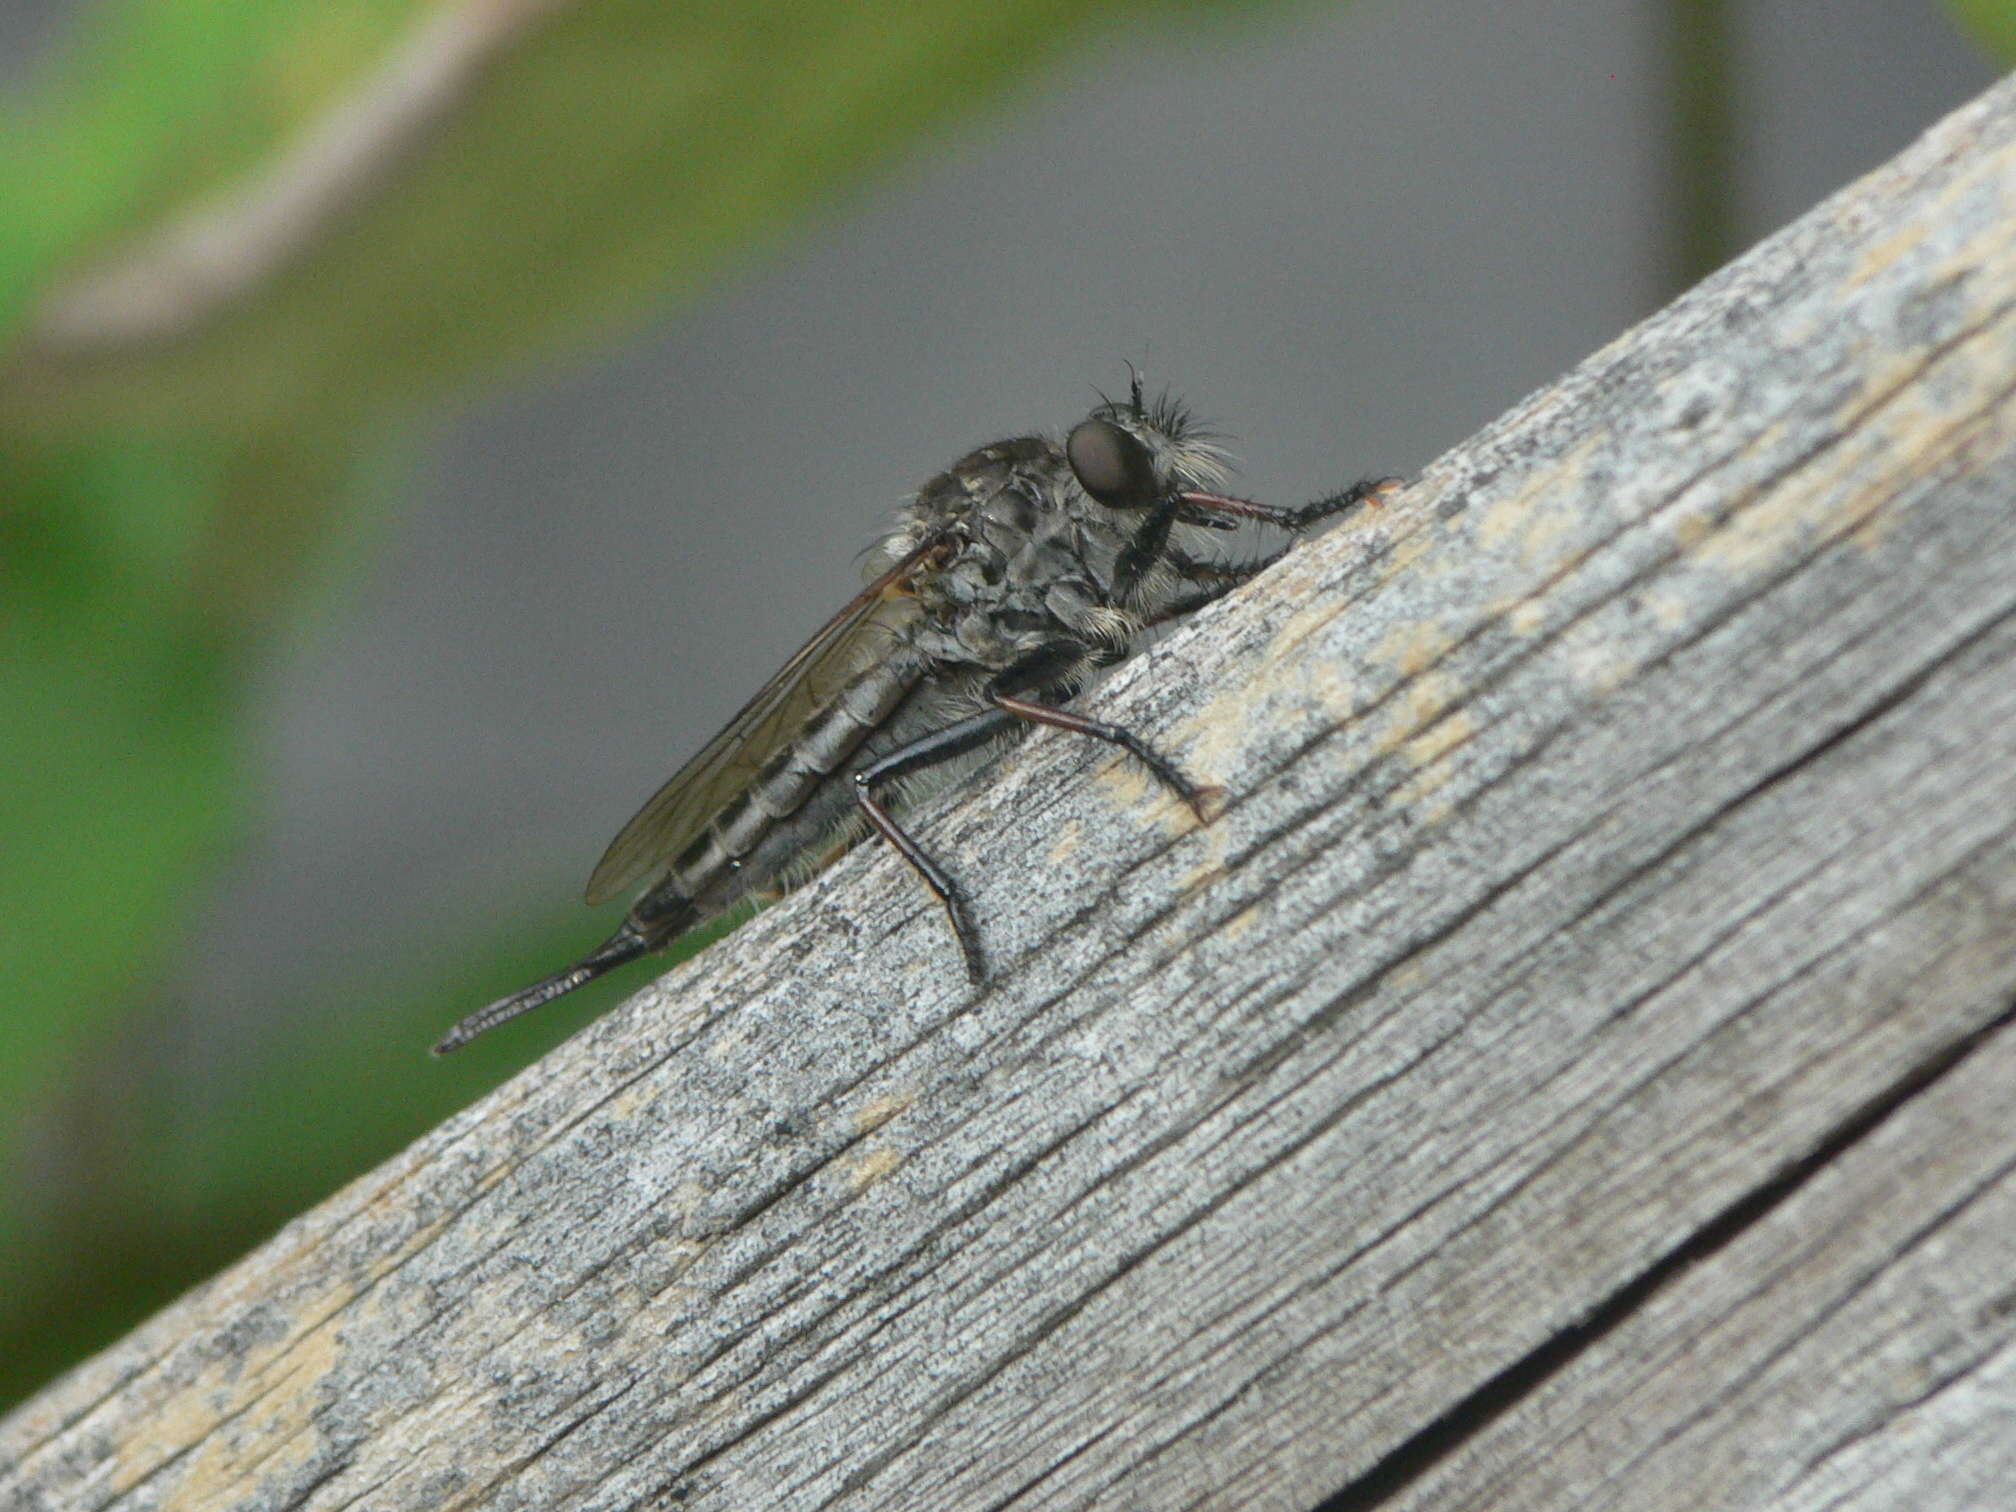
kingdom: Animalia
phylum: Arthropoda
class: Insecta
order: Diptera
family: Asilidae
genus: Efferia
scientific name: Efferia aestuans
